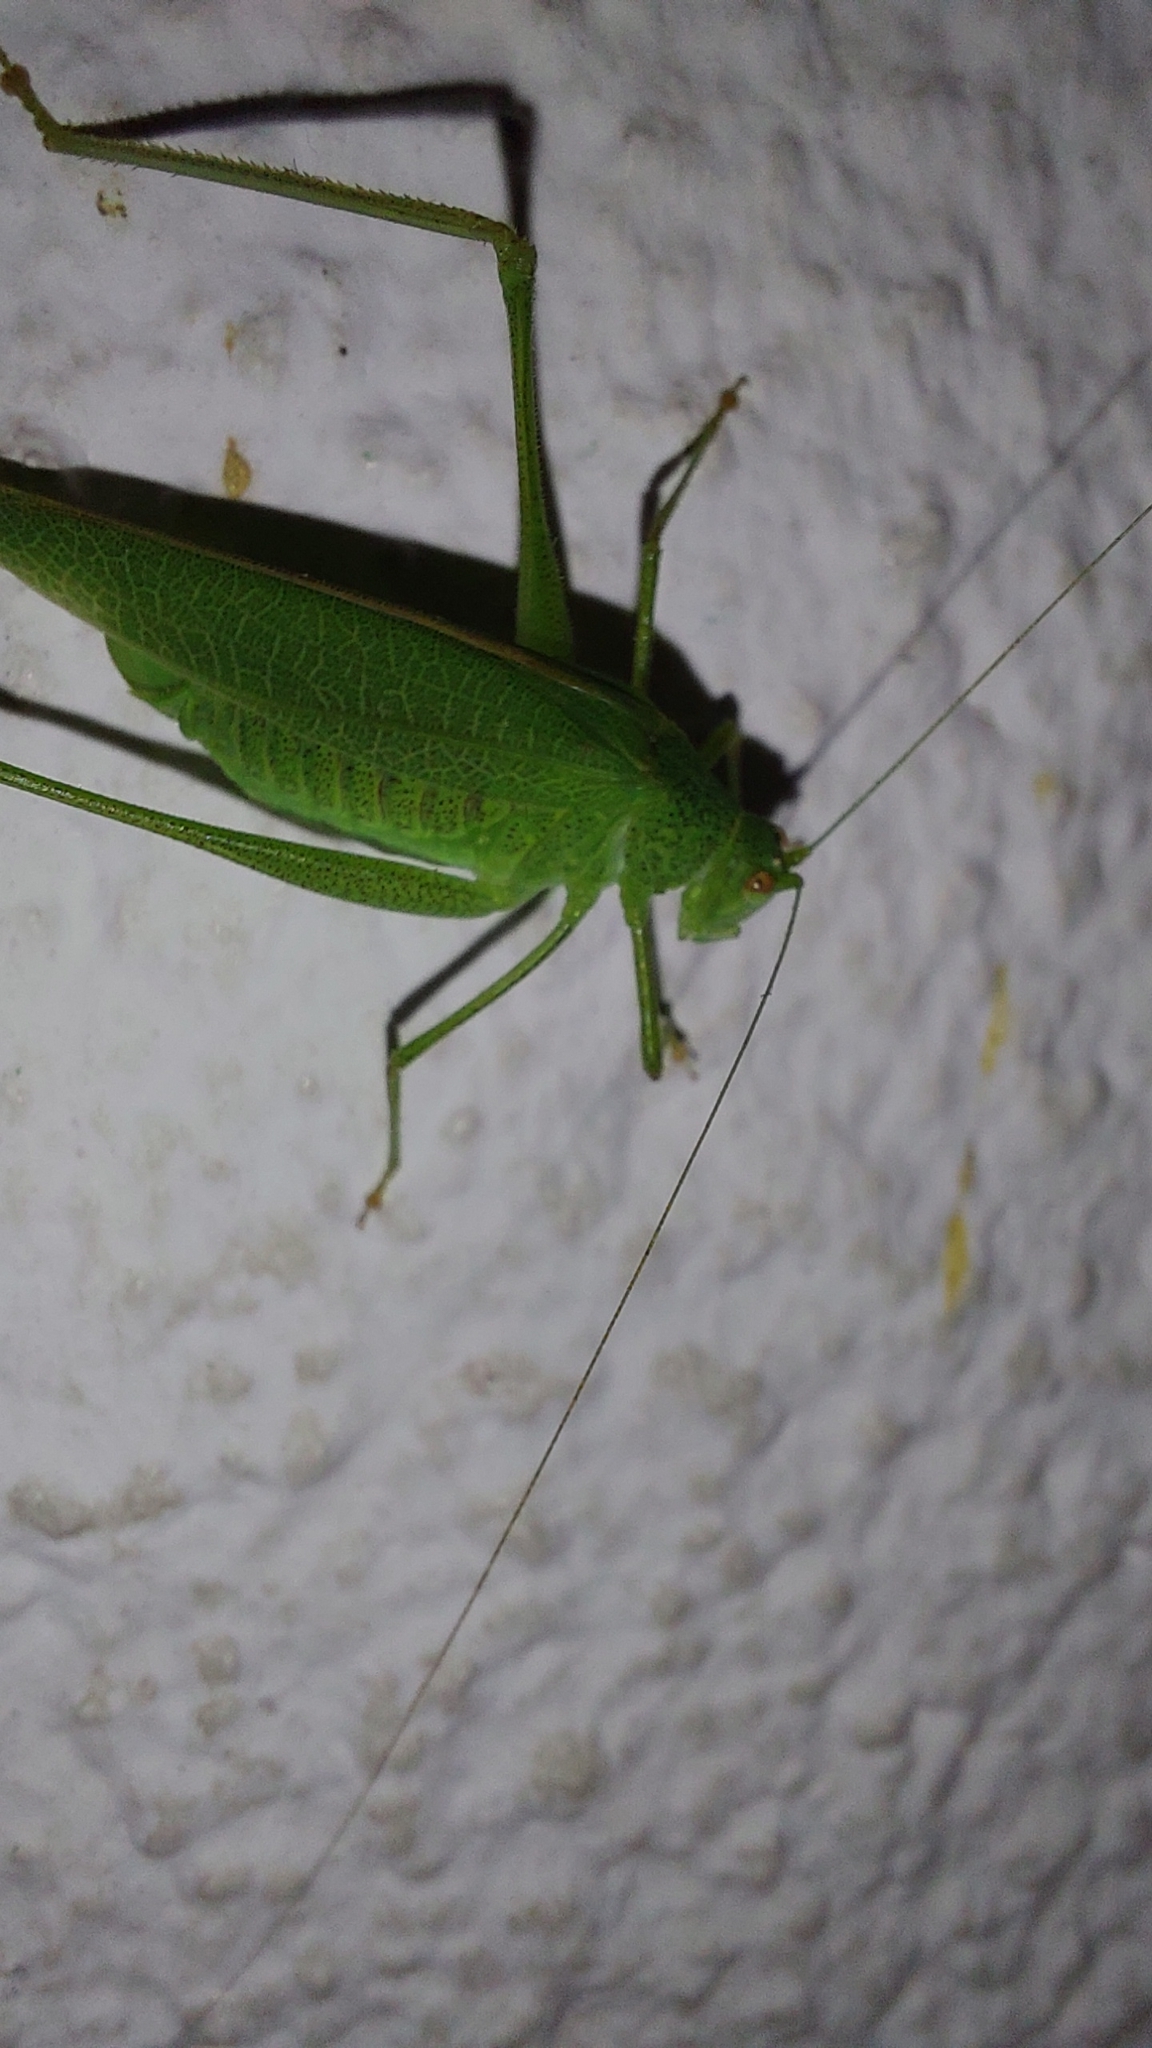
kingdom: Animalia
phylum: Arthropoda
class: Insecta
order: Orthoptera
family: Tettigoniidae
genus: Phaneroptera
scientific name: Phaneroptera nana
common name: Southern sickle bush-cricket
